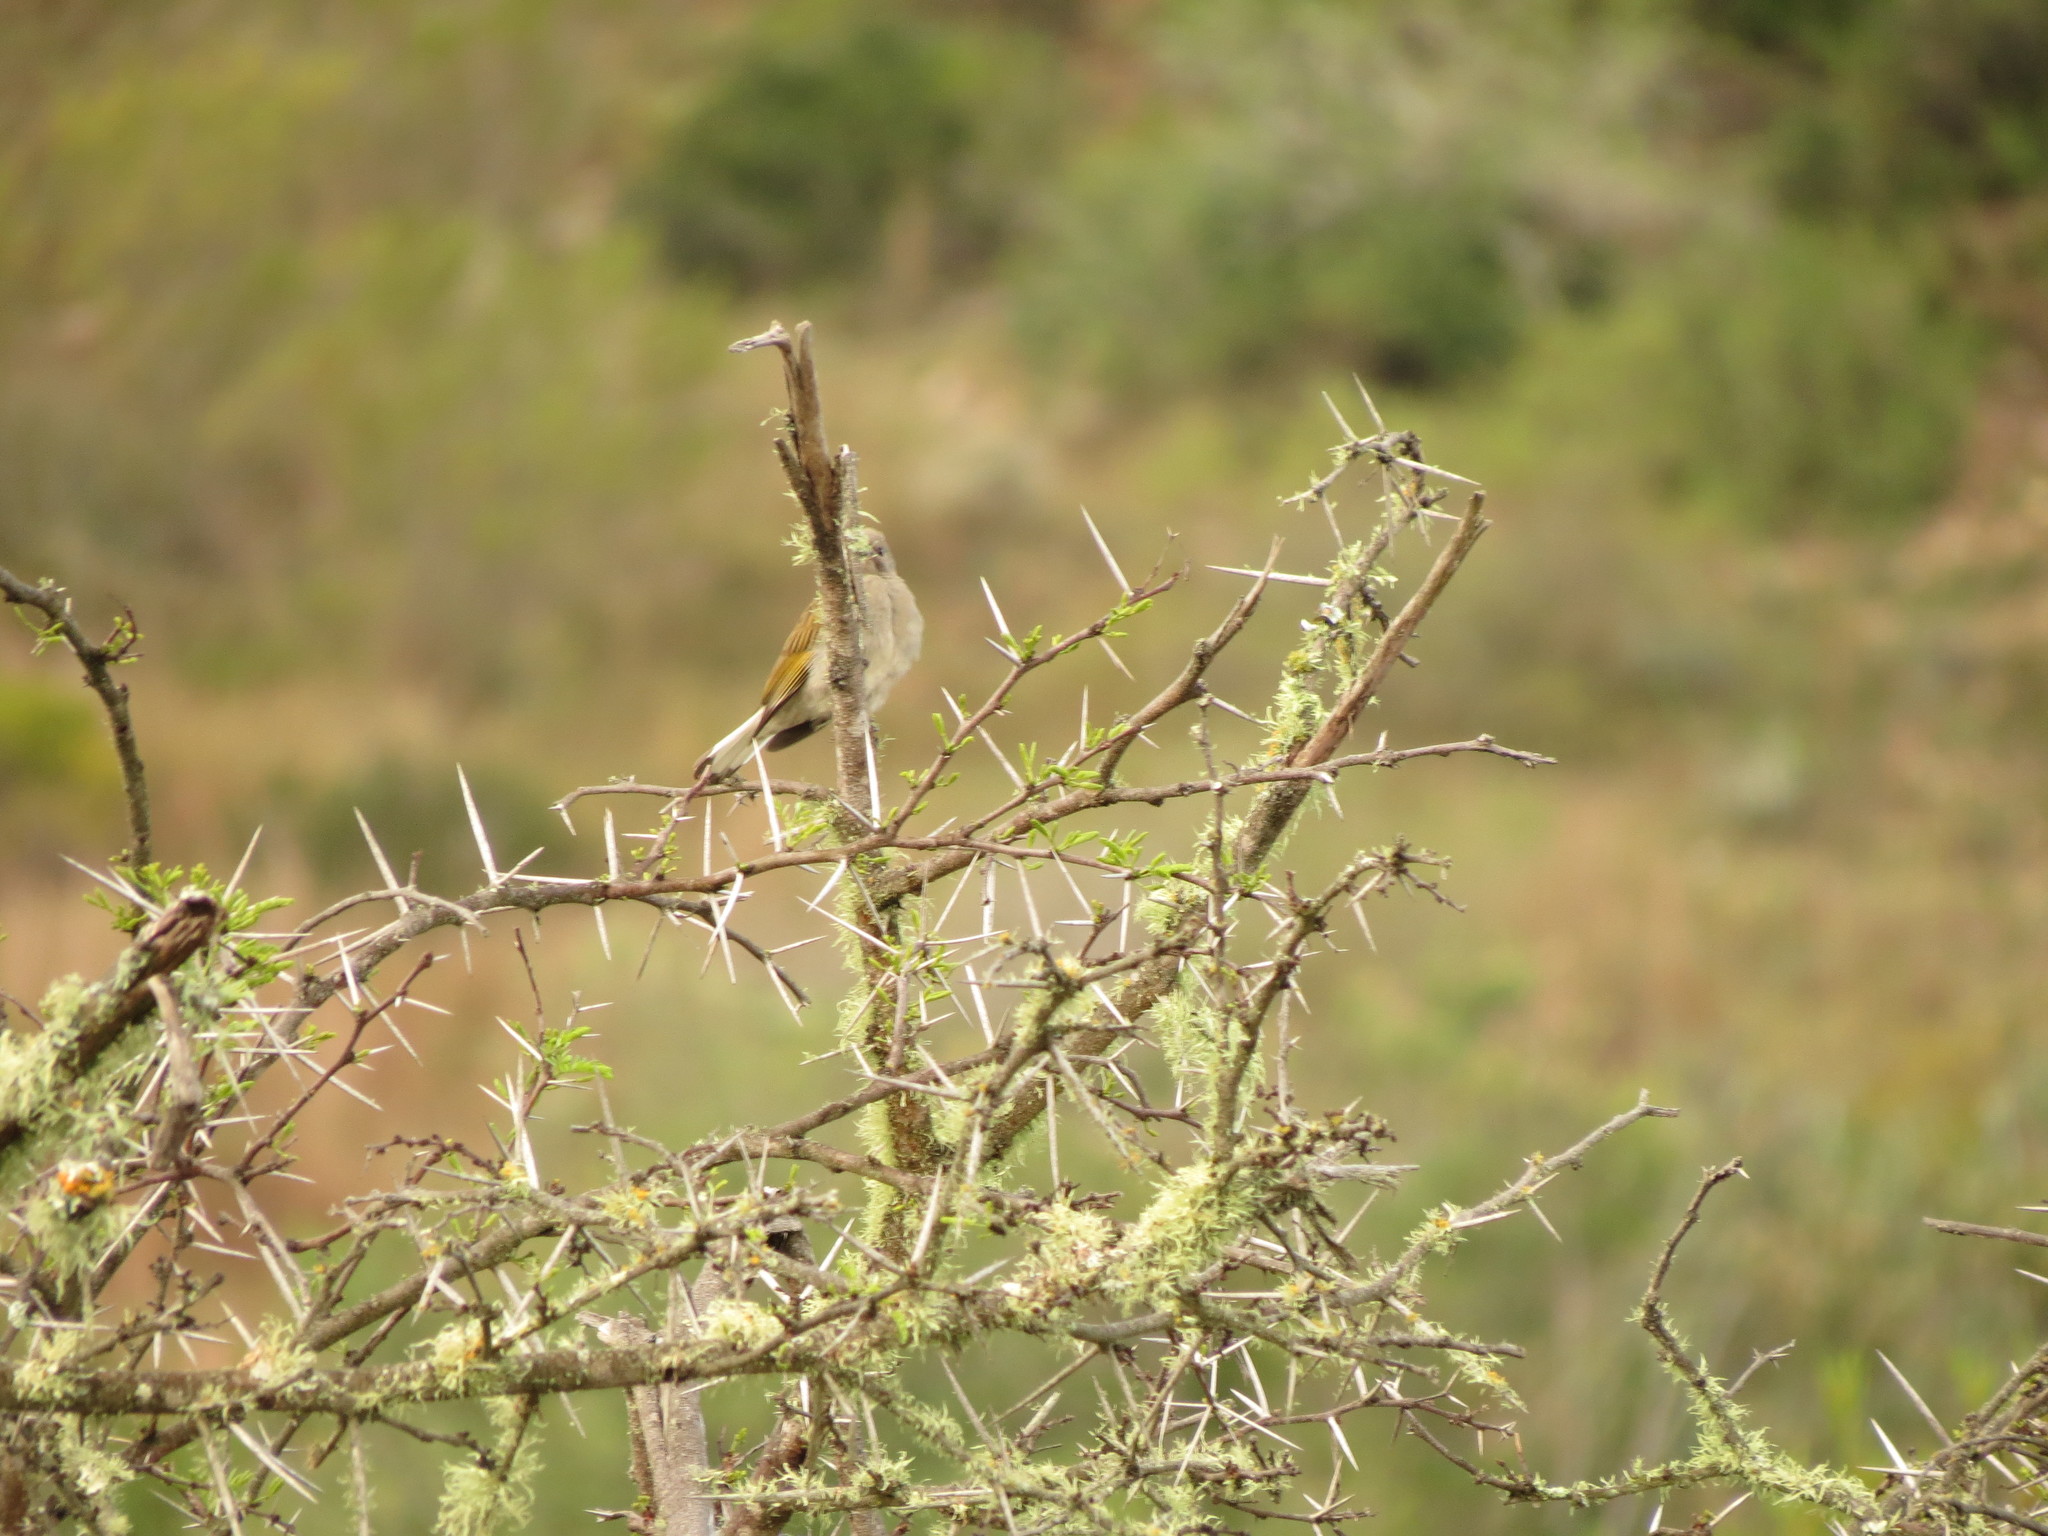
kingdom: Animalia
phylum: Chordata
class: Aves
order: Piciformes
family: Indicatoridae
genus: Indicator
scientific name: Indicator minor
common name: Lesser honeyguide
